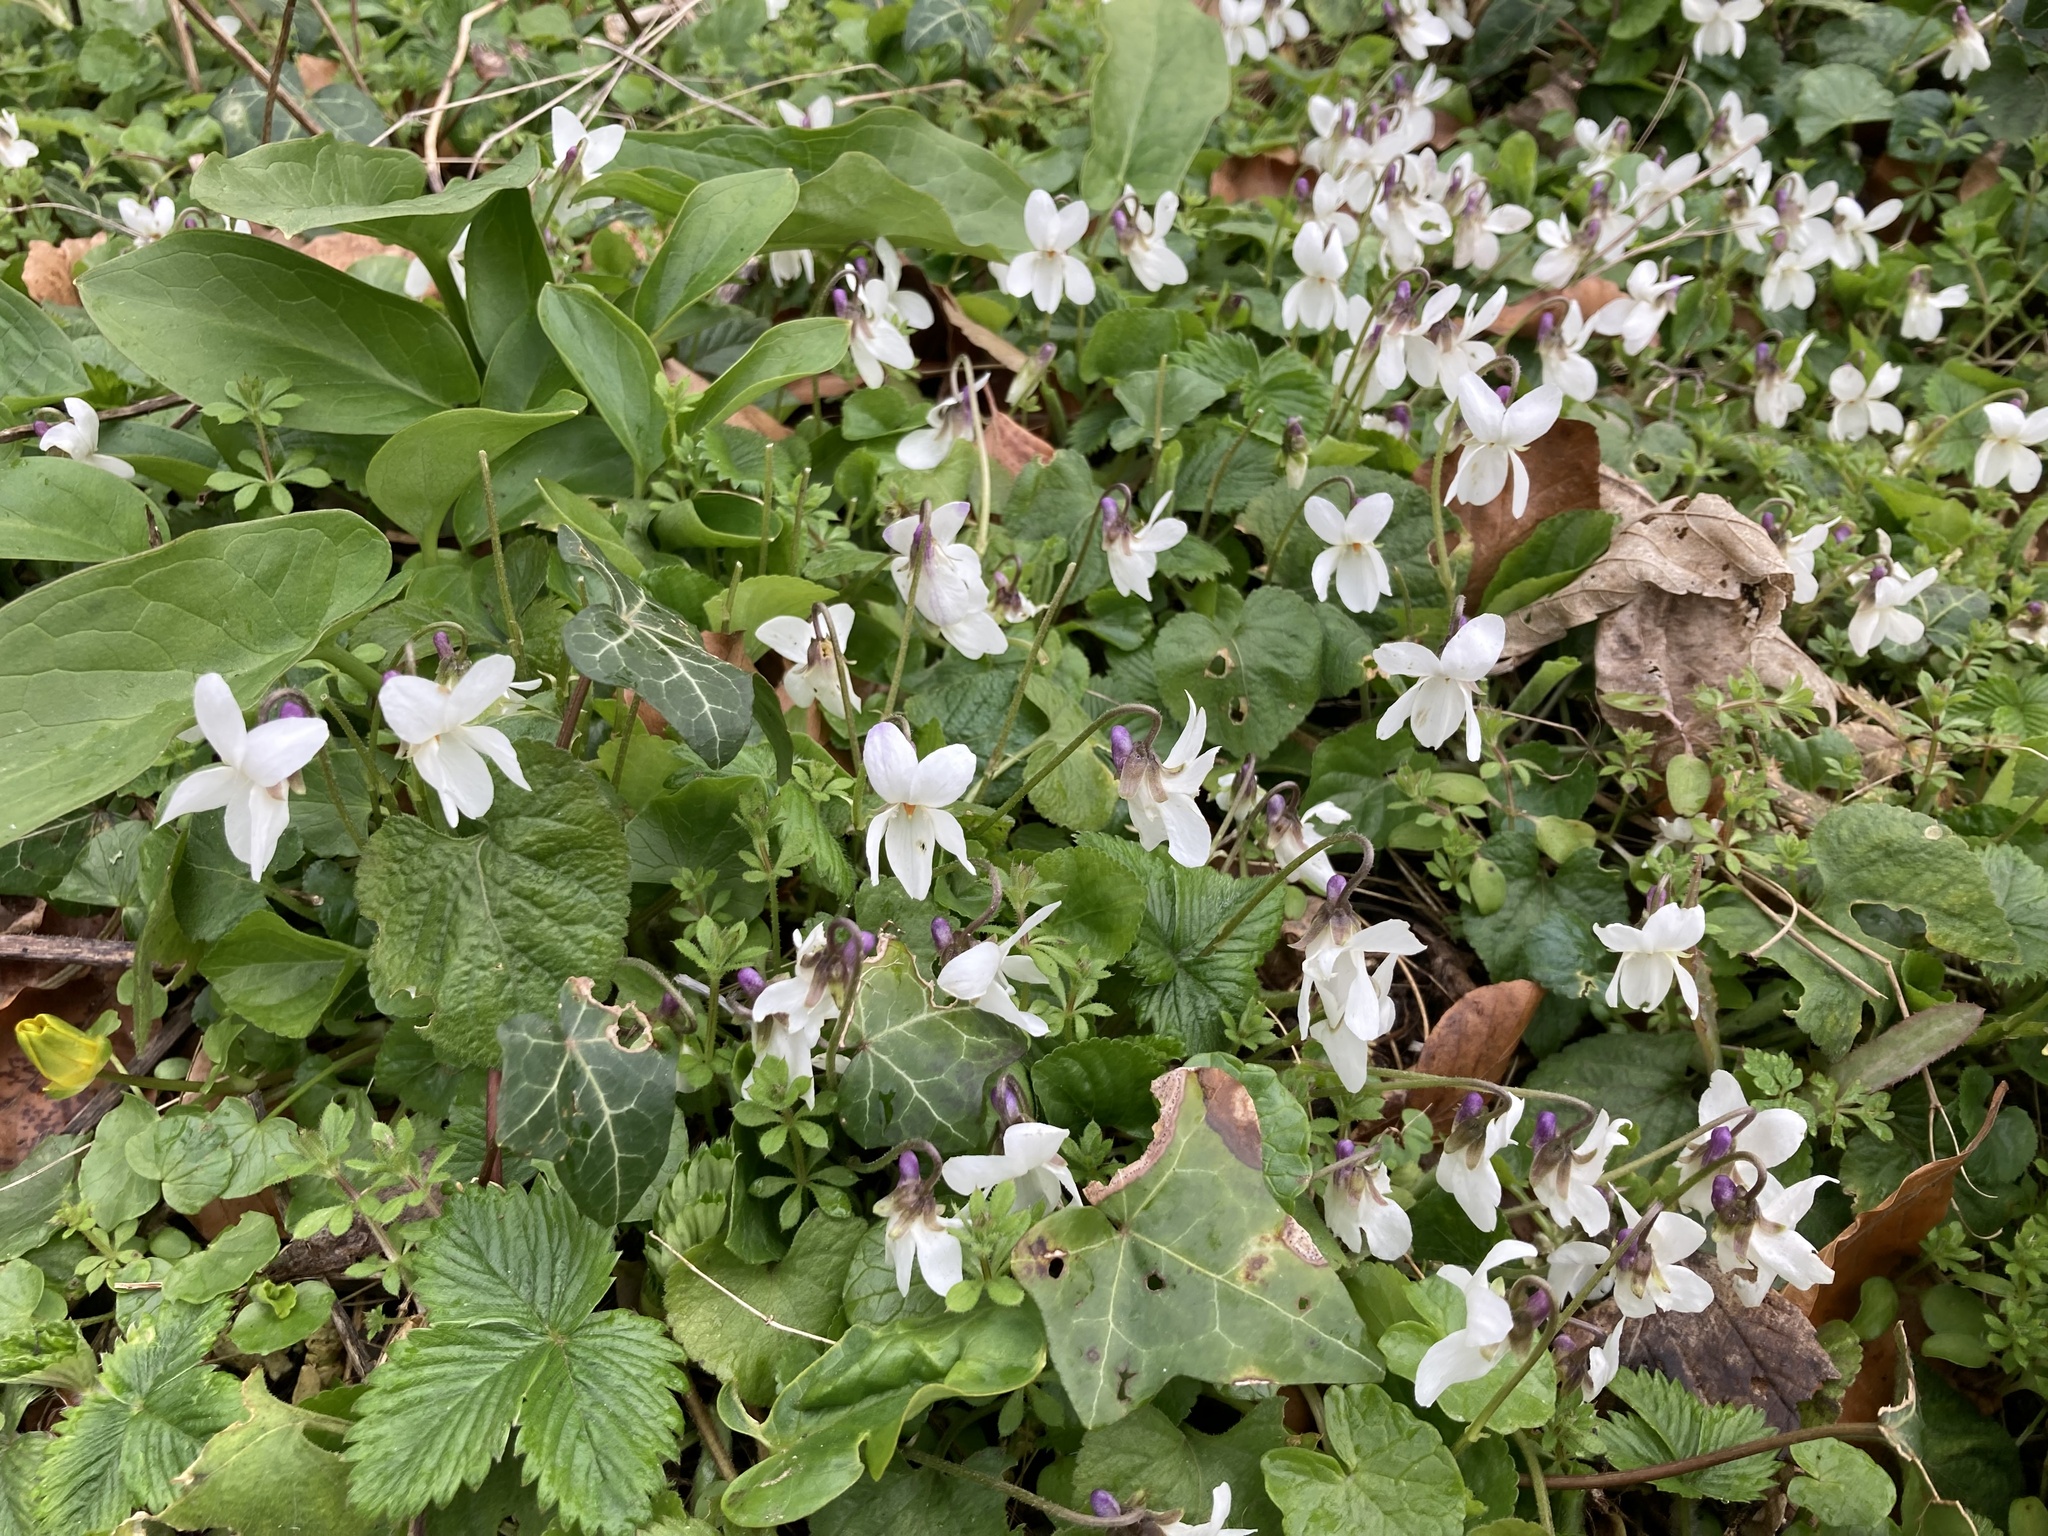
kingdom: Plantae
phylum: Tracheophyta
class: Magnoliopsida
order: Malpighiales
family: Violaceae
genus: Viola
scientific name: Viola odorata
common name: Sweet violet
